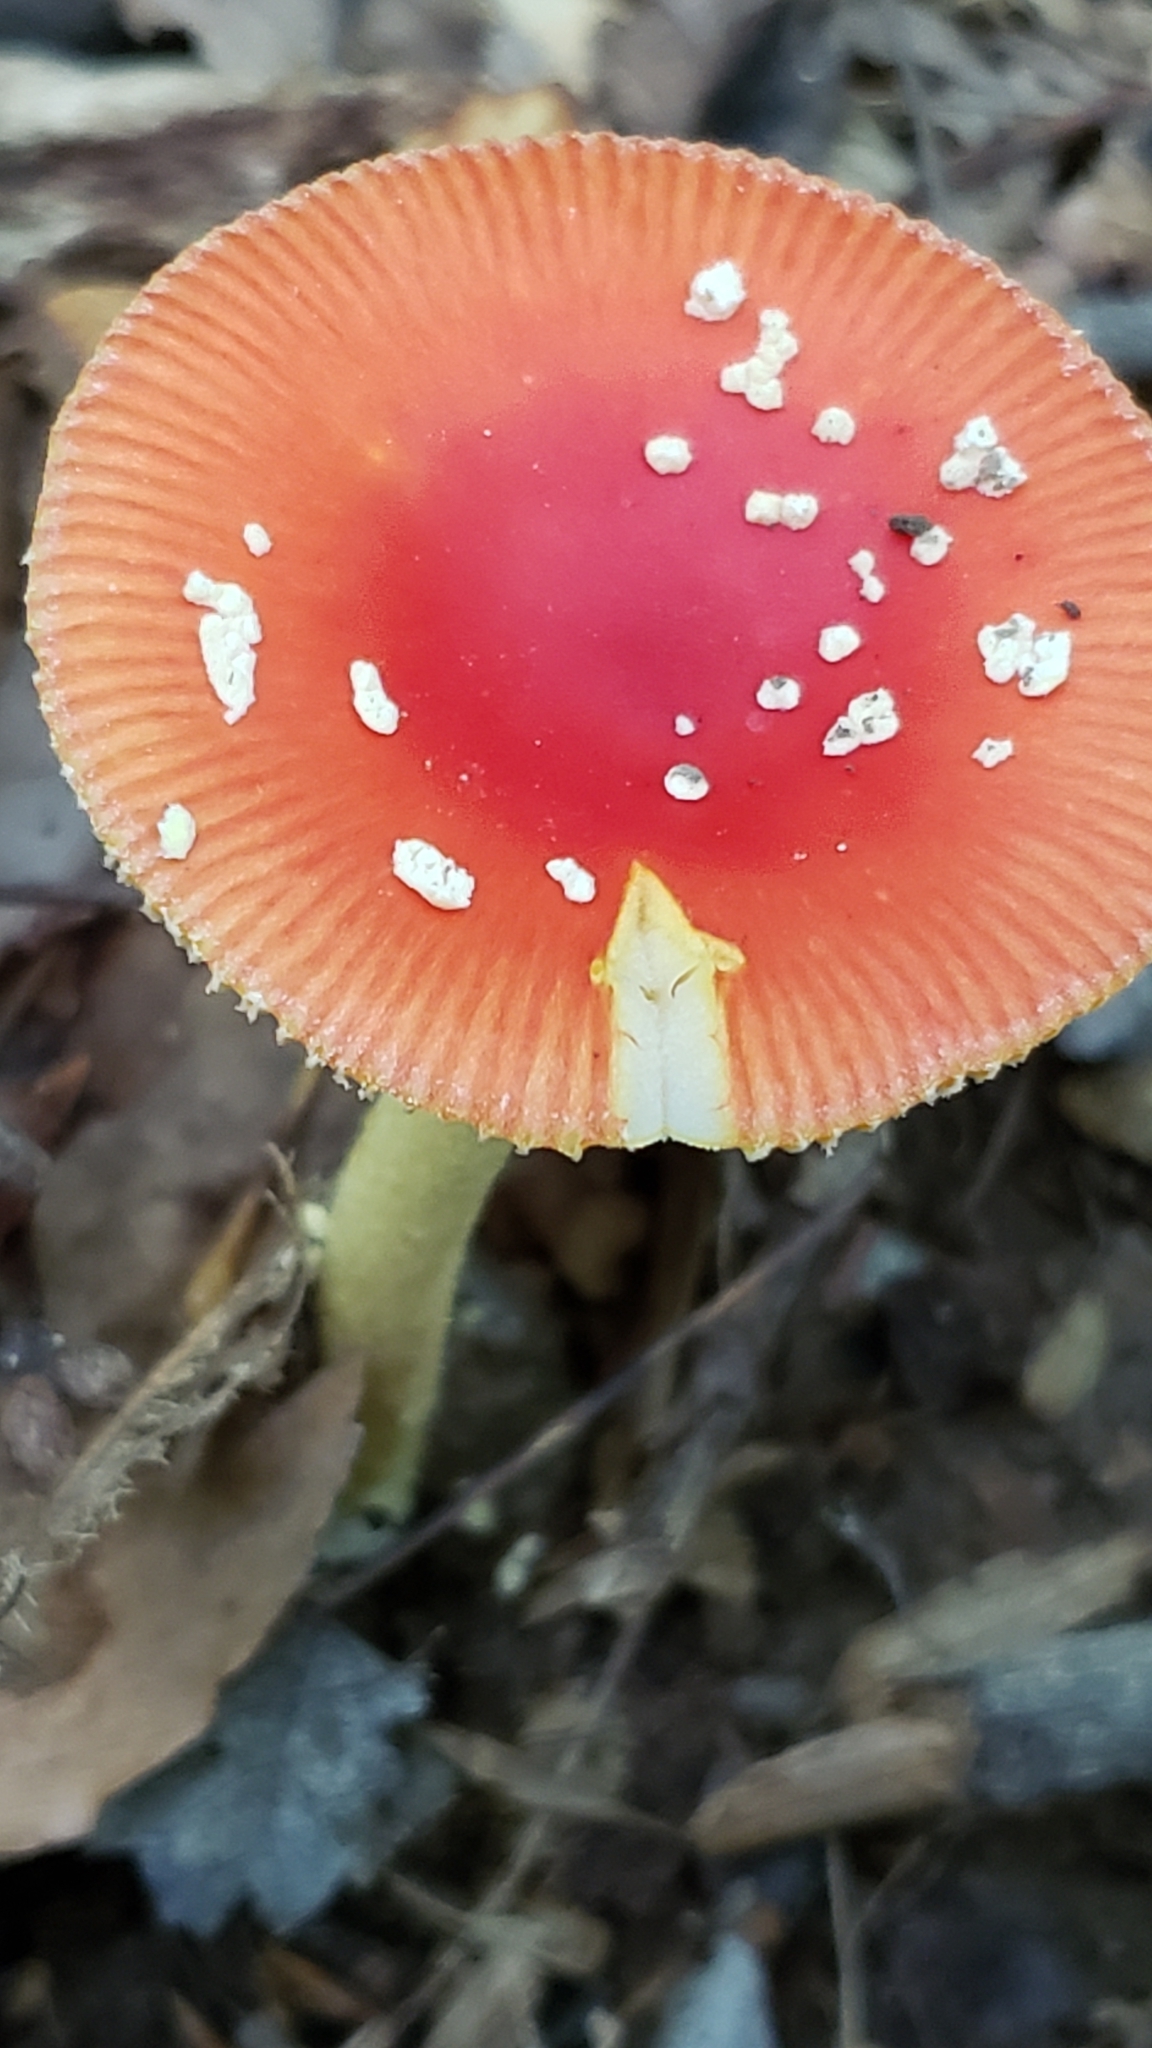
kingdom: Fungi
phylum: Basidiomycota
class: Agaricomycetes
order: Agaricales
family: Amanitaceae
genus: Amanita
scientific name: Amanita parcivolvata
